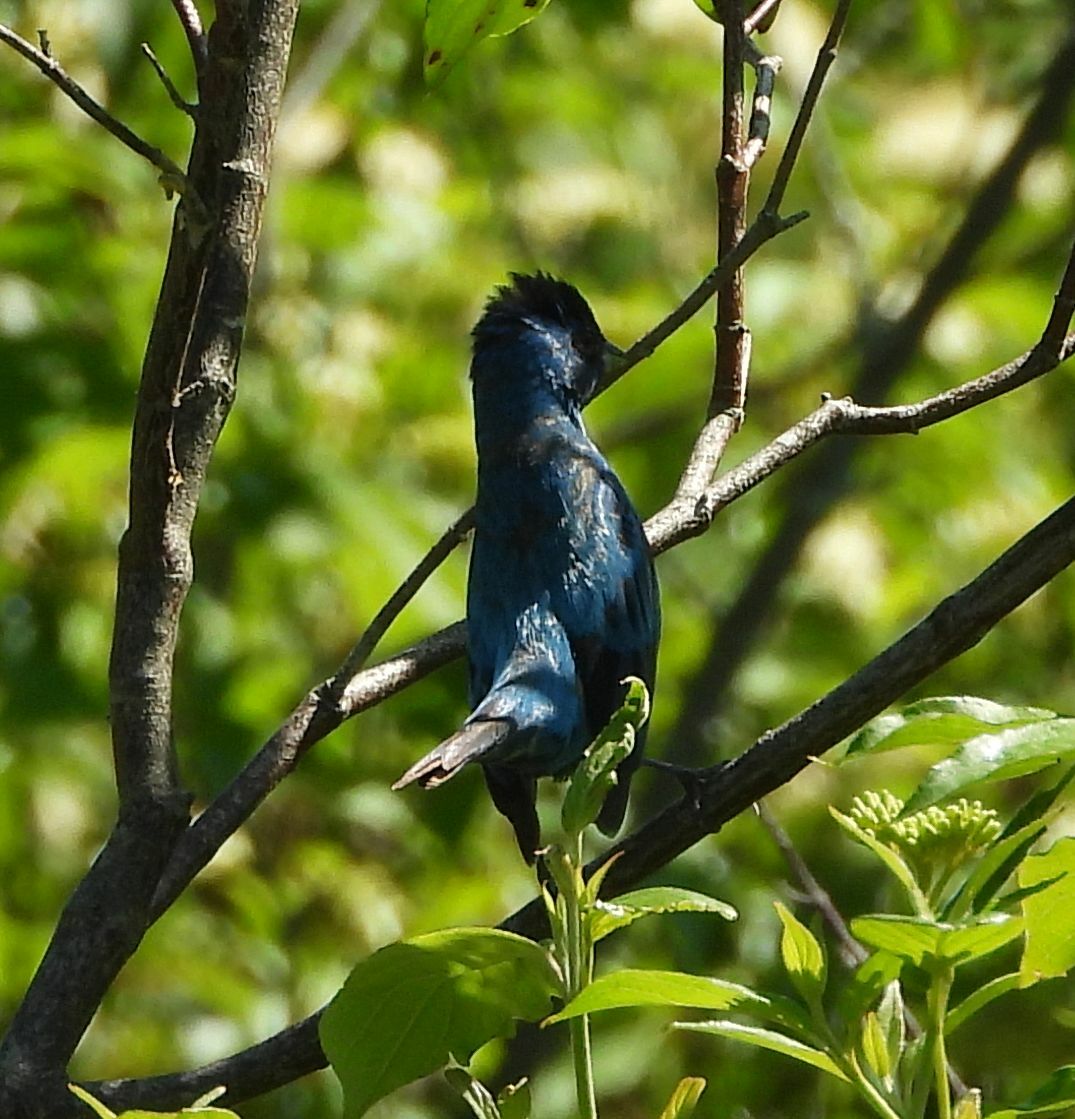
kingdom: Animalia
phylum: Chordata
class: Aves
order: Passeriformes
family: Cardinalidae
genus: Passerina
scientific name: Passerina cyanea
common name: Indigo bunting
